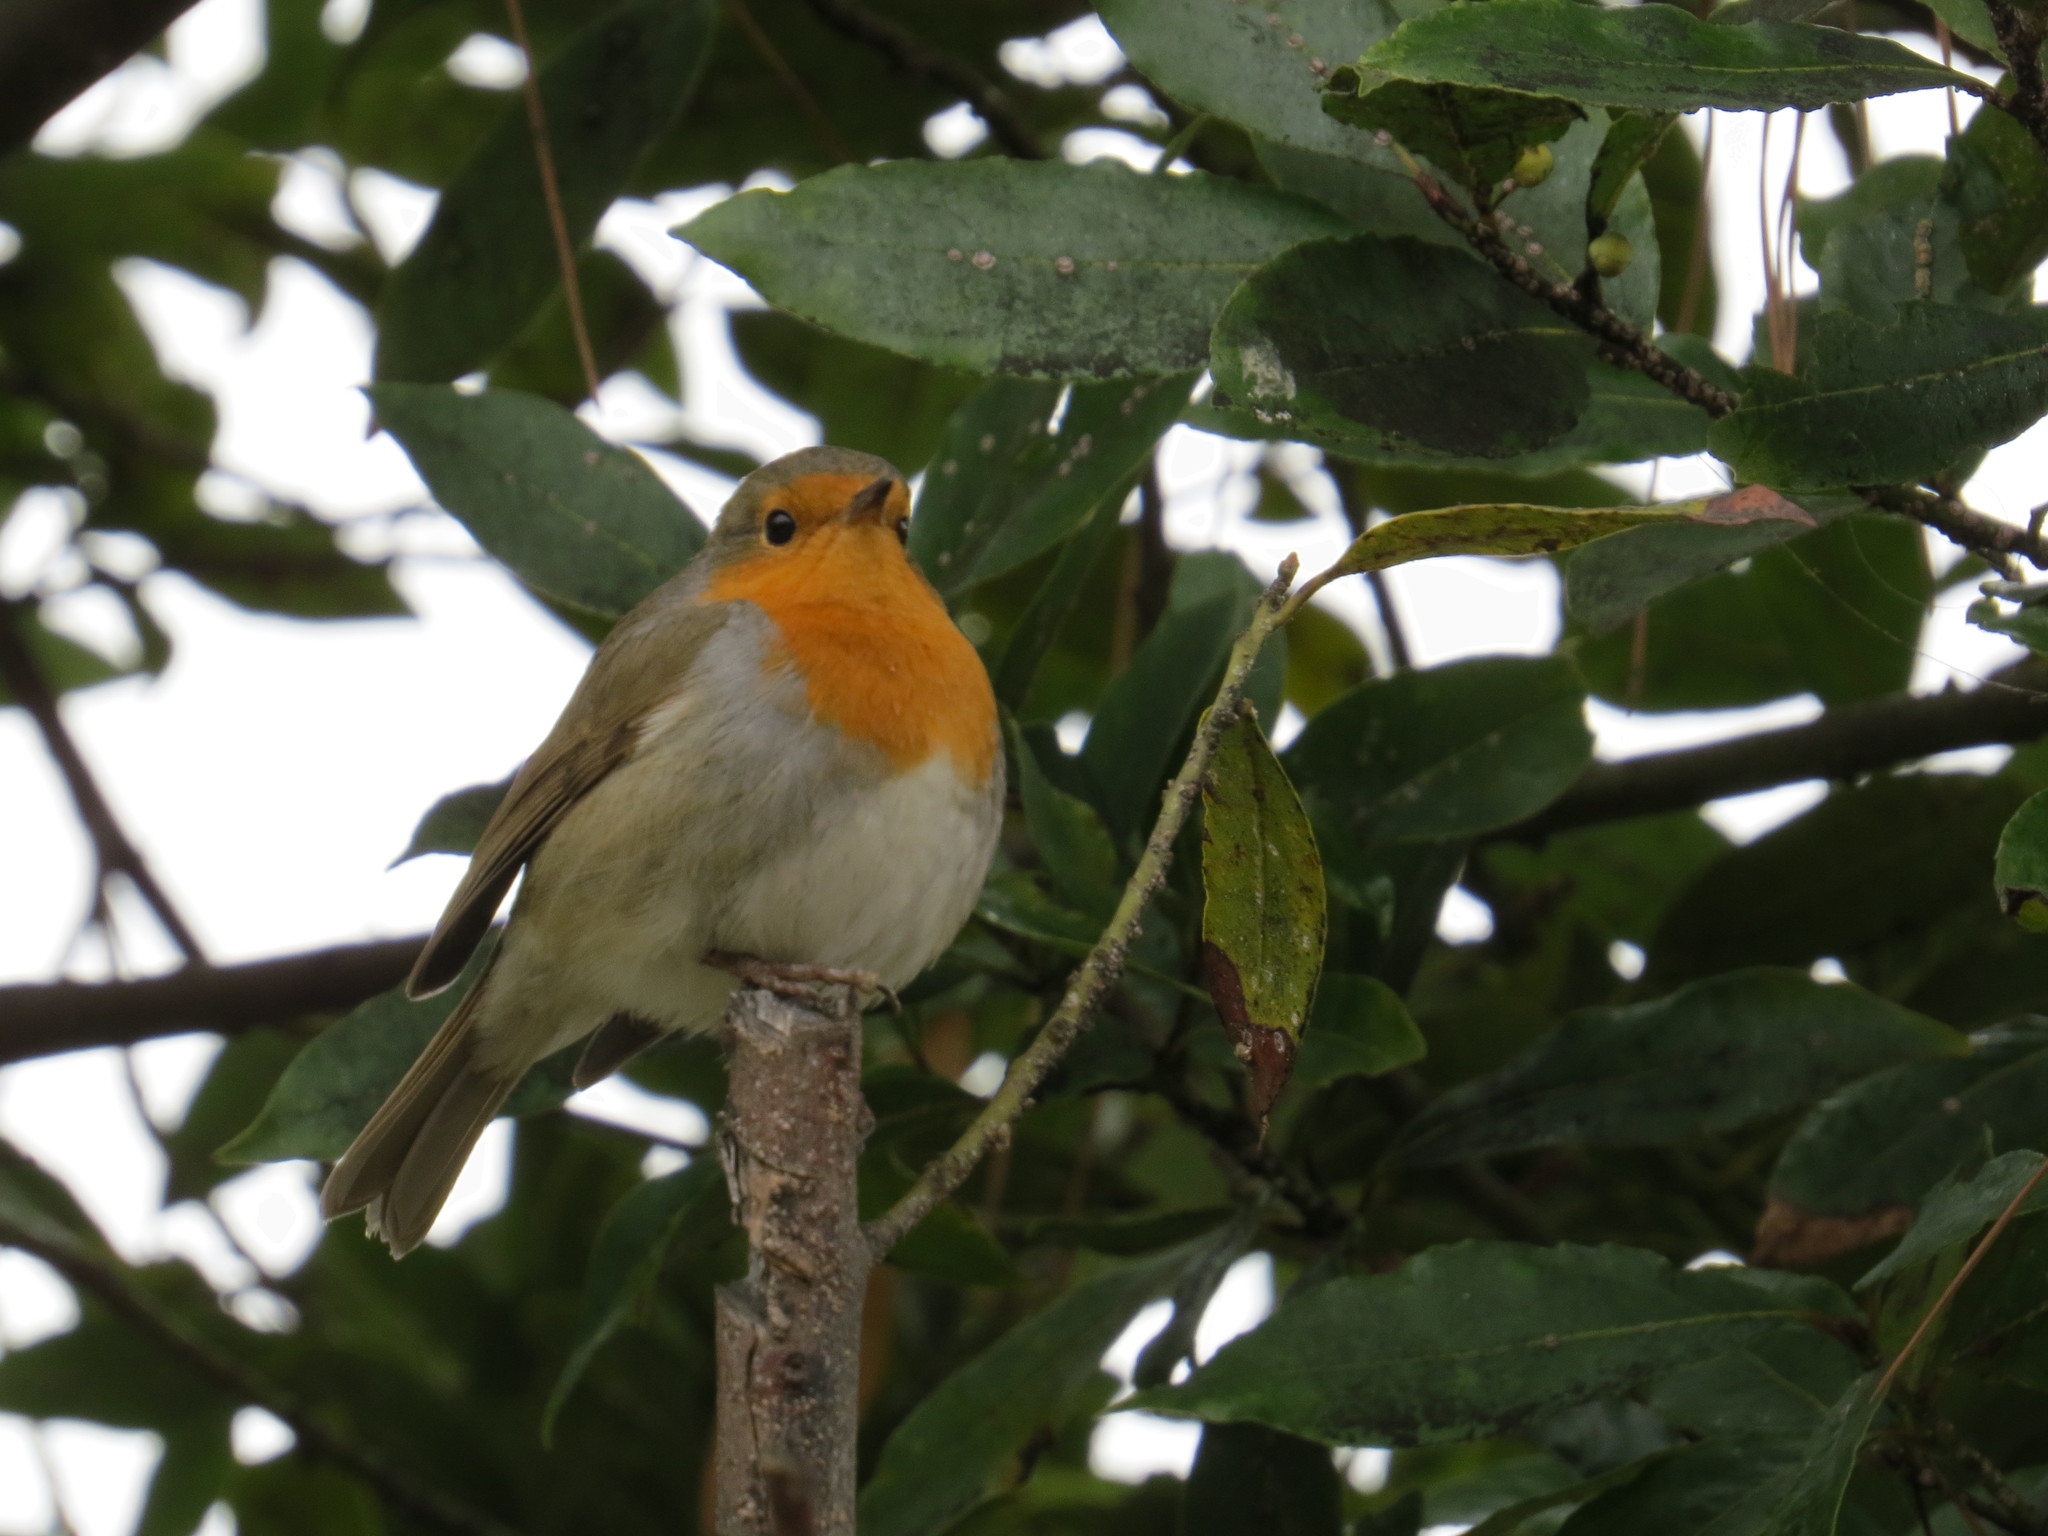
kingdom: Animalia
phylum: Chordata
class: Aves
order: Passeriformes
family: Muscicapidae
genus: Erithacus
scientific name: Erithacus rubecula
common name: European robin
